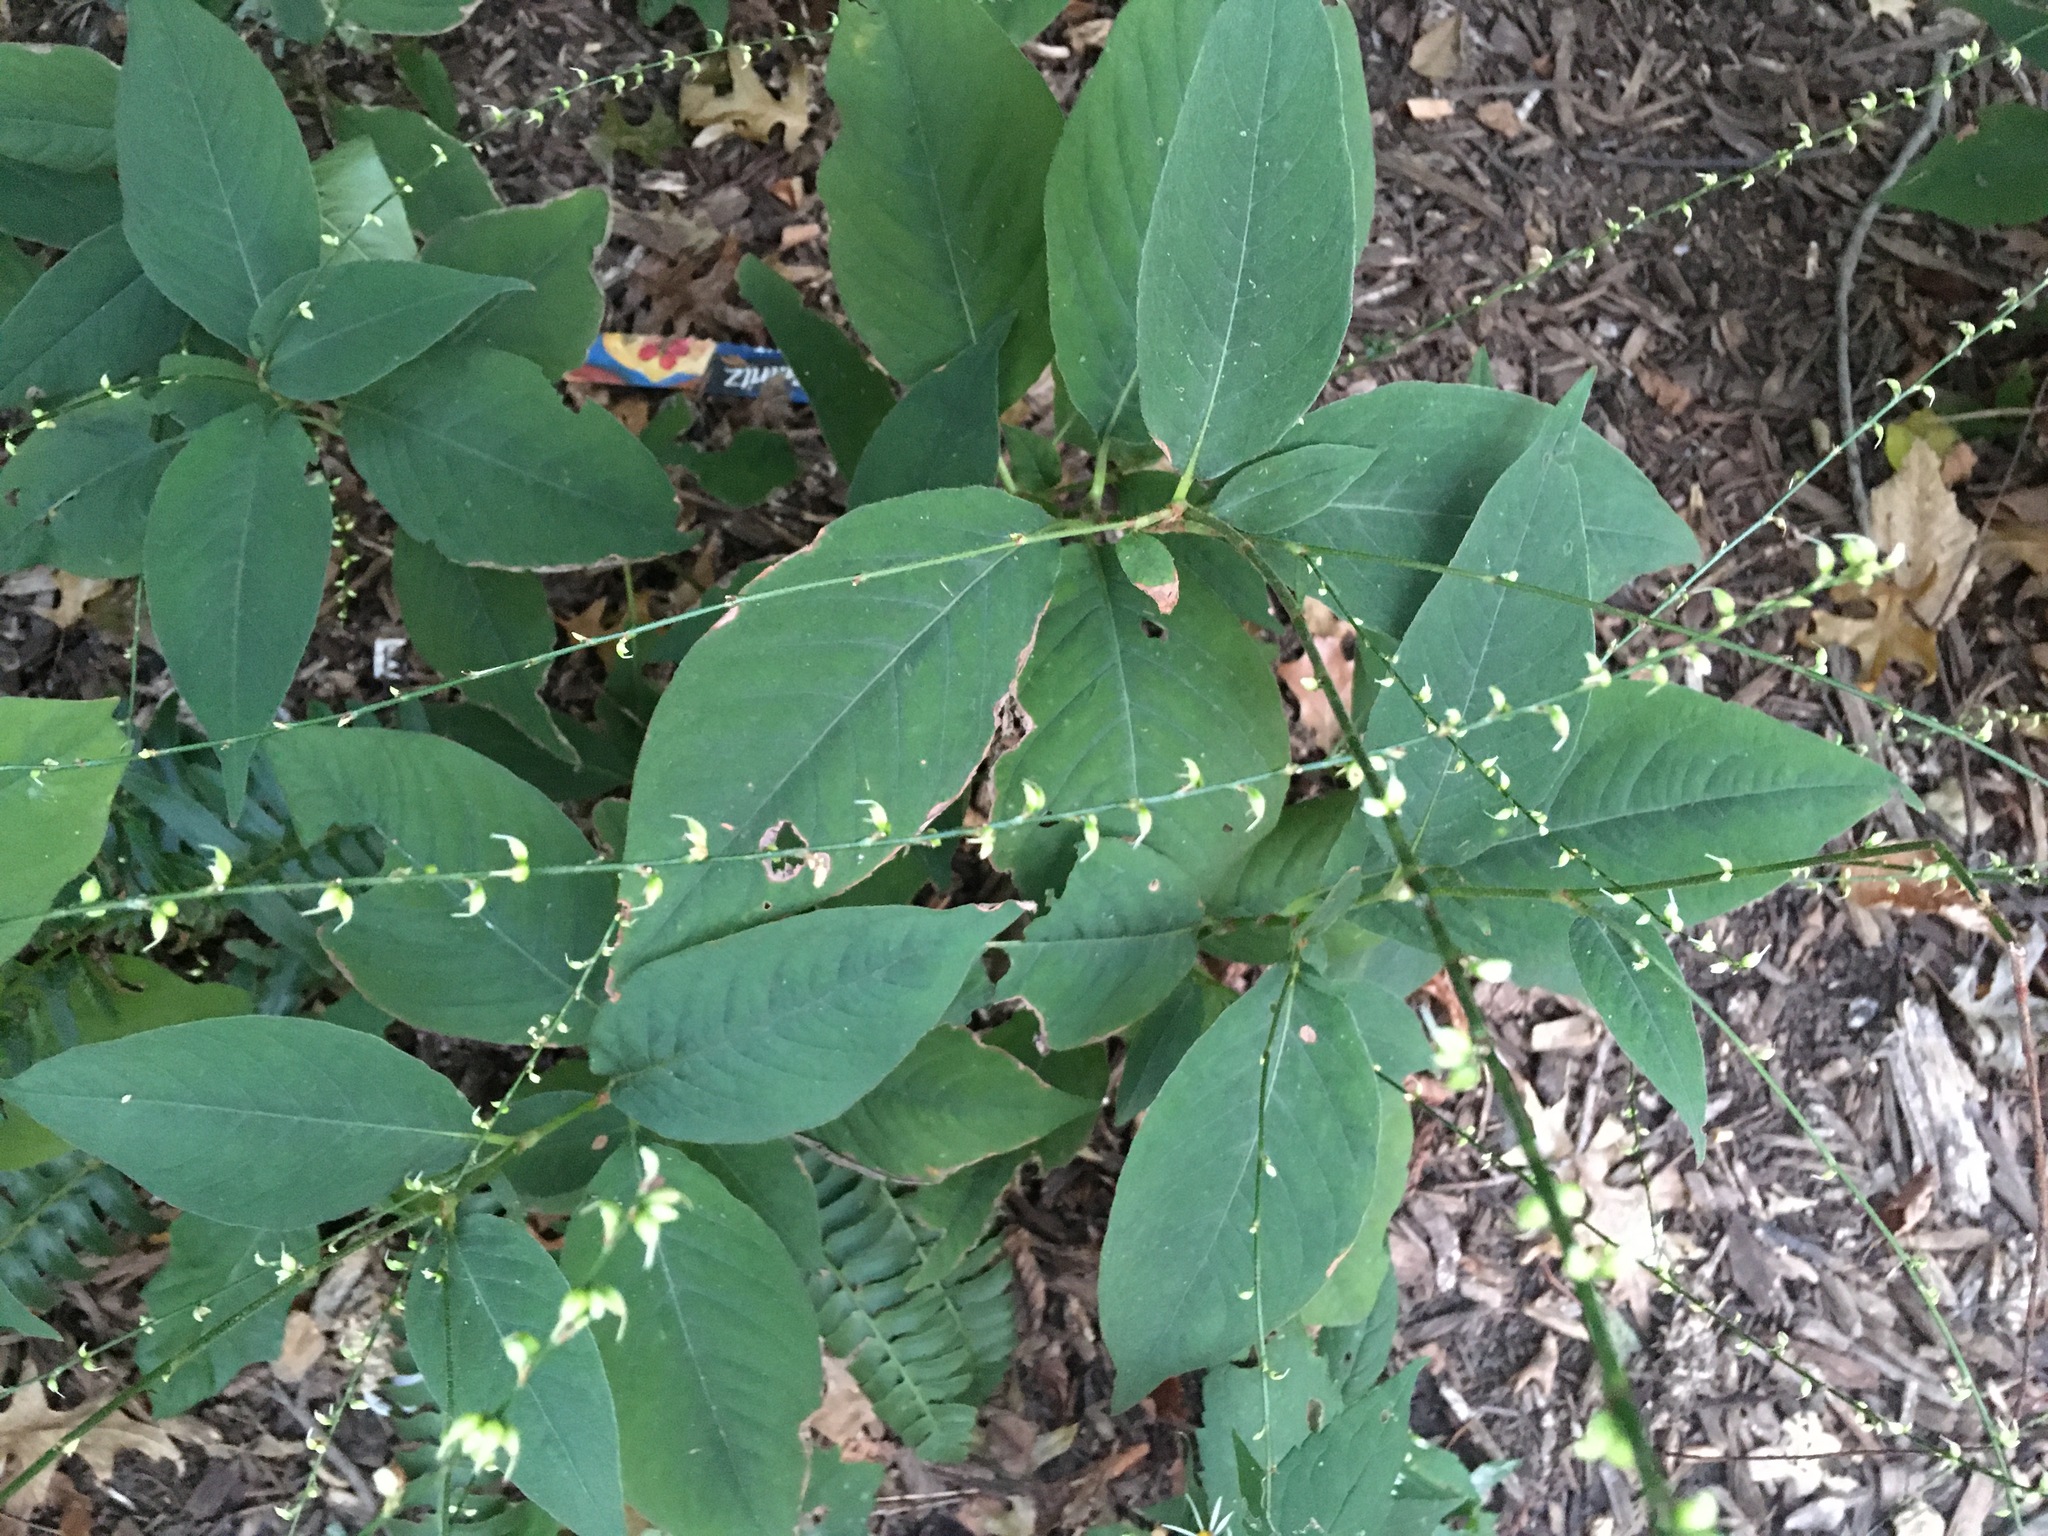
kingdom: Plantae
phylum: Tracheophyta
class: Magnoliopsida
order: Caryophyllales
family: Polygonaceae
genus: Persicaria
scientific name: Persicaria virginiana
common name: Jumpseed
